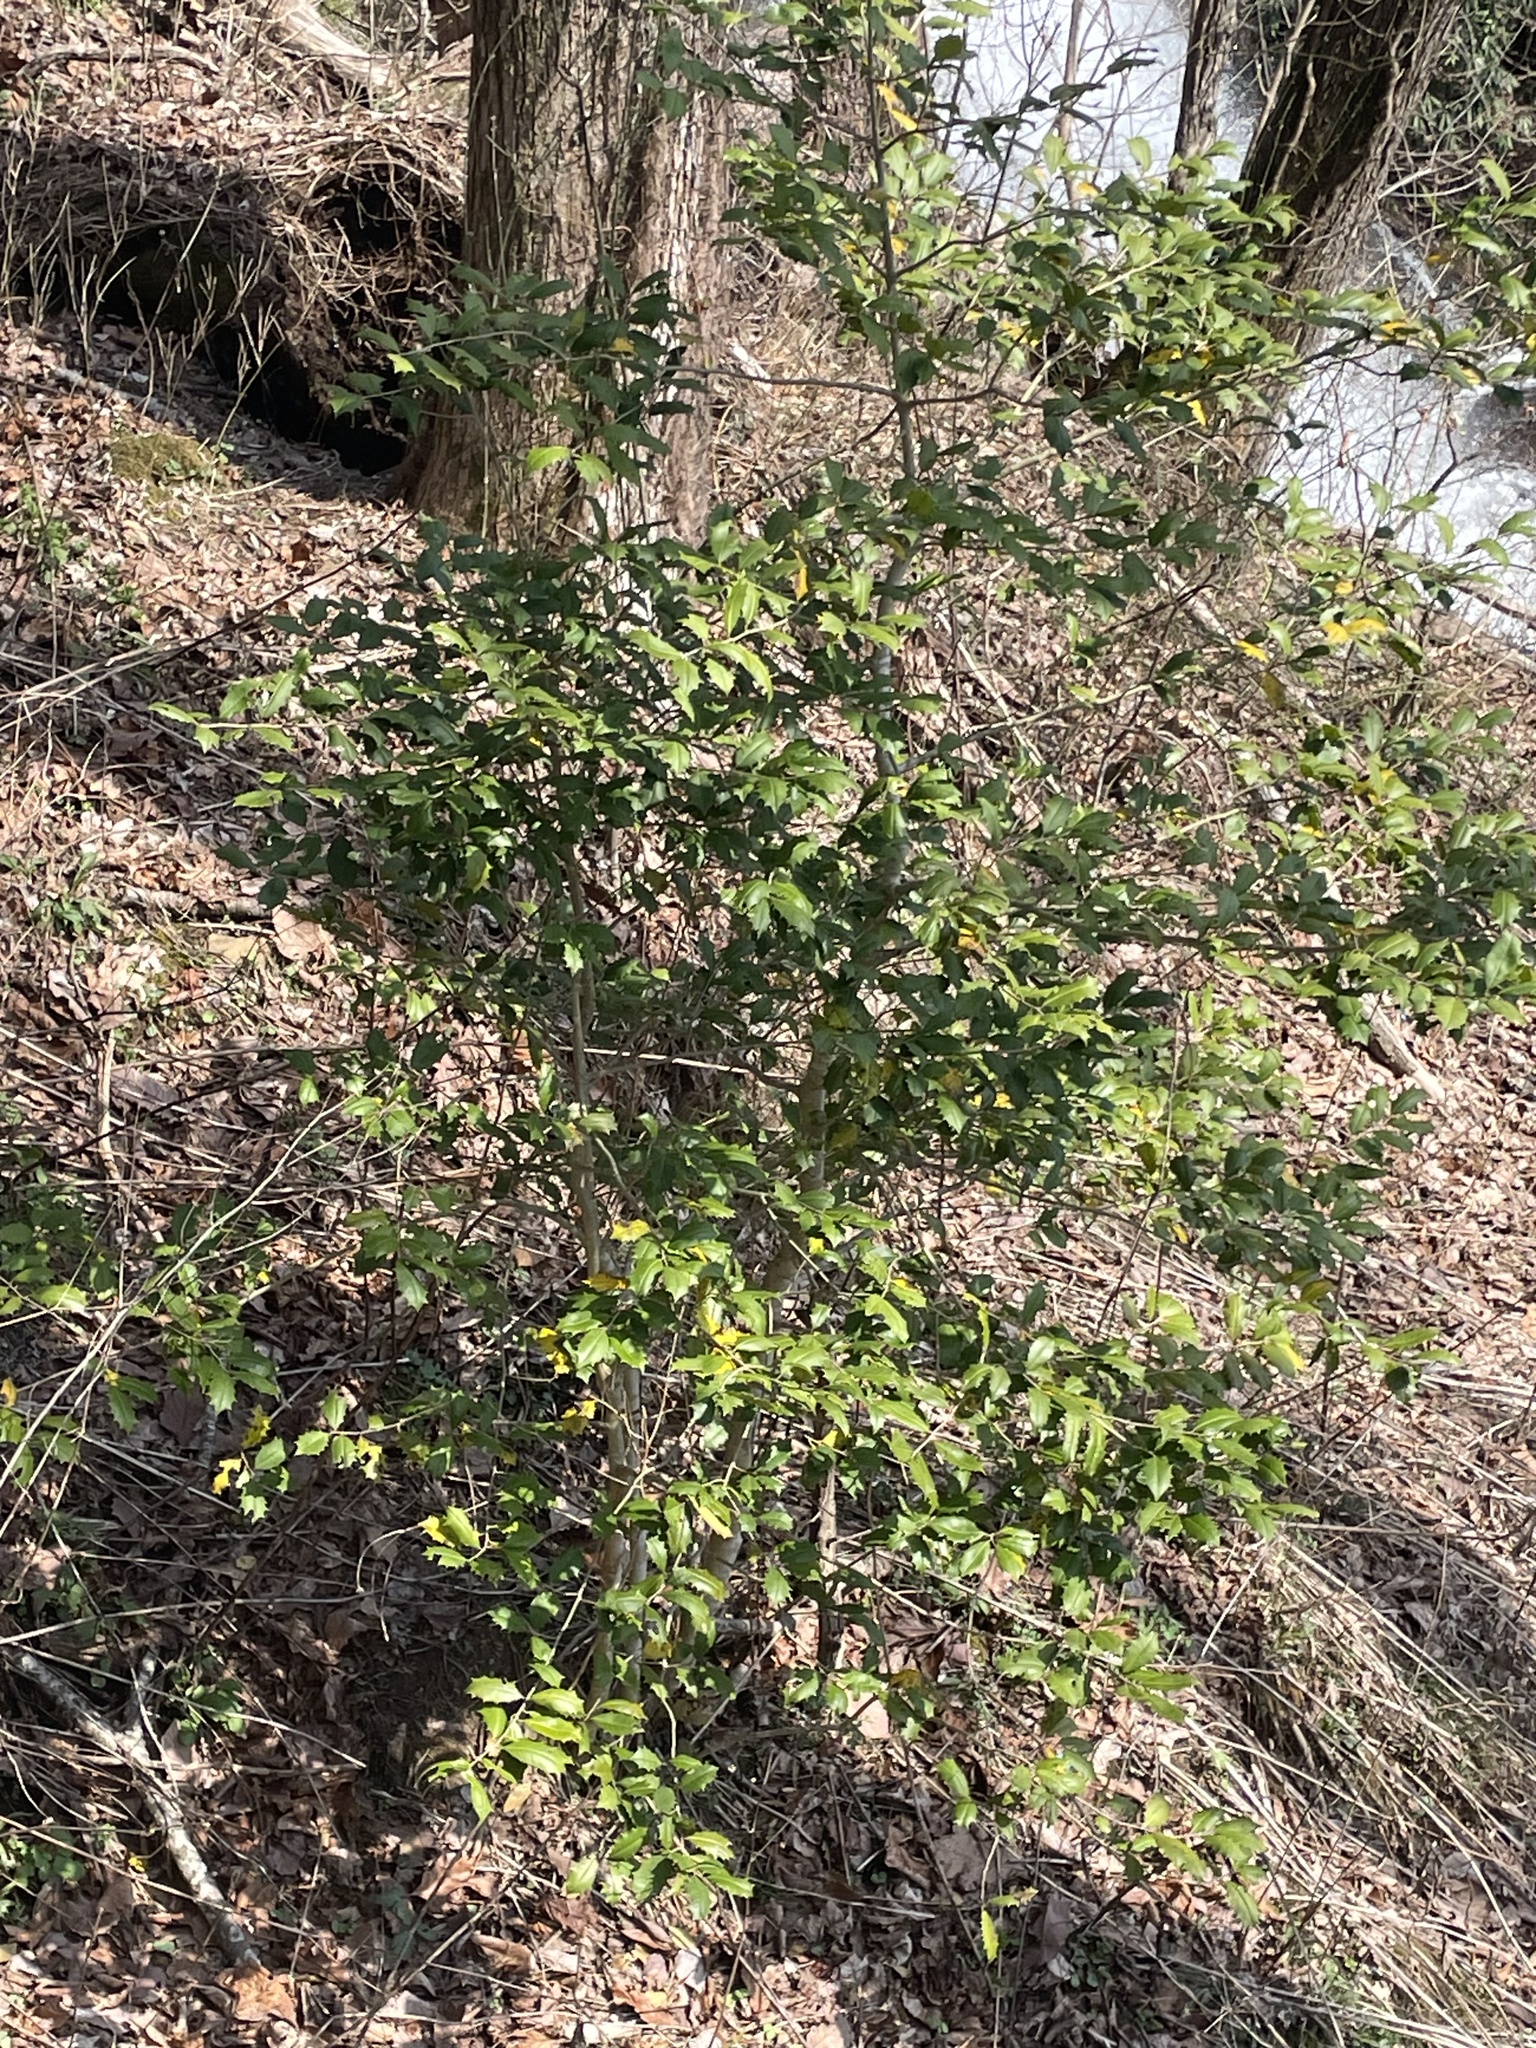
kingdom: Plantae
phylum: Tracheophyta
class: Magnoliopsida
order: Aquifoliales
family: Aquifoliaceae
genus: Ilex
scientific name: Ilex opaca
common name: American holly
